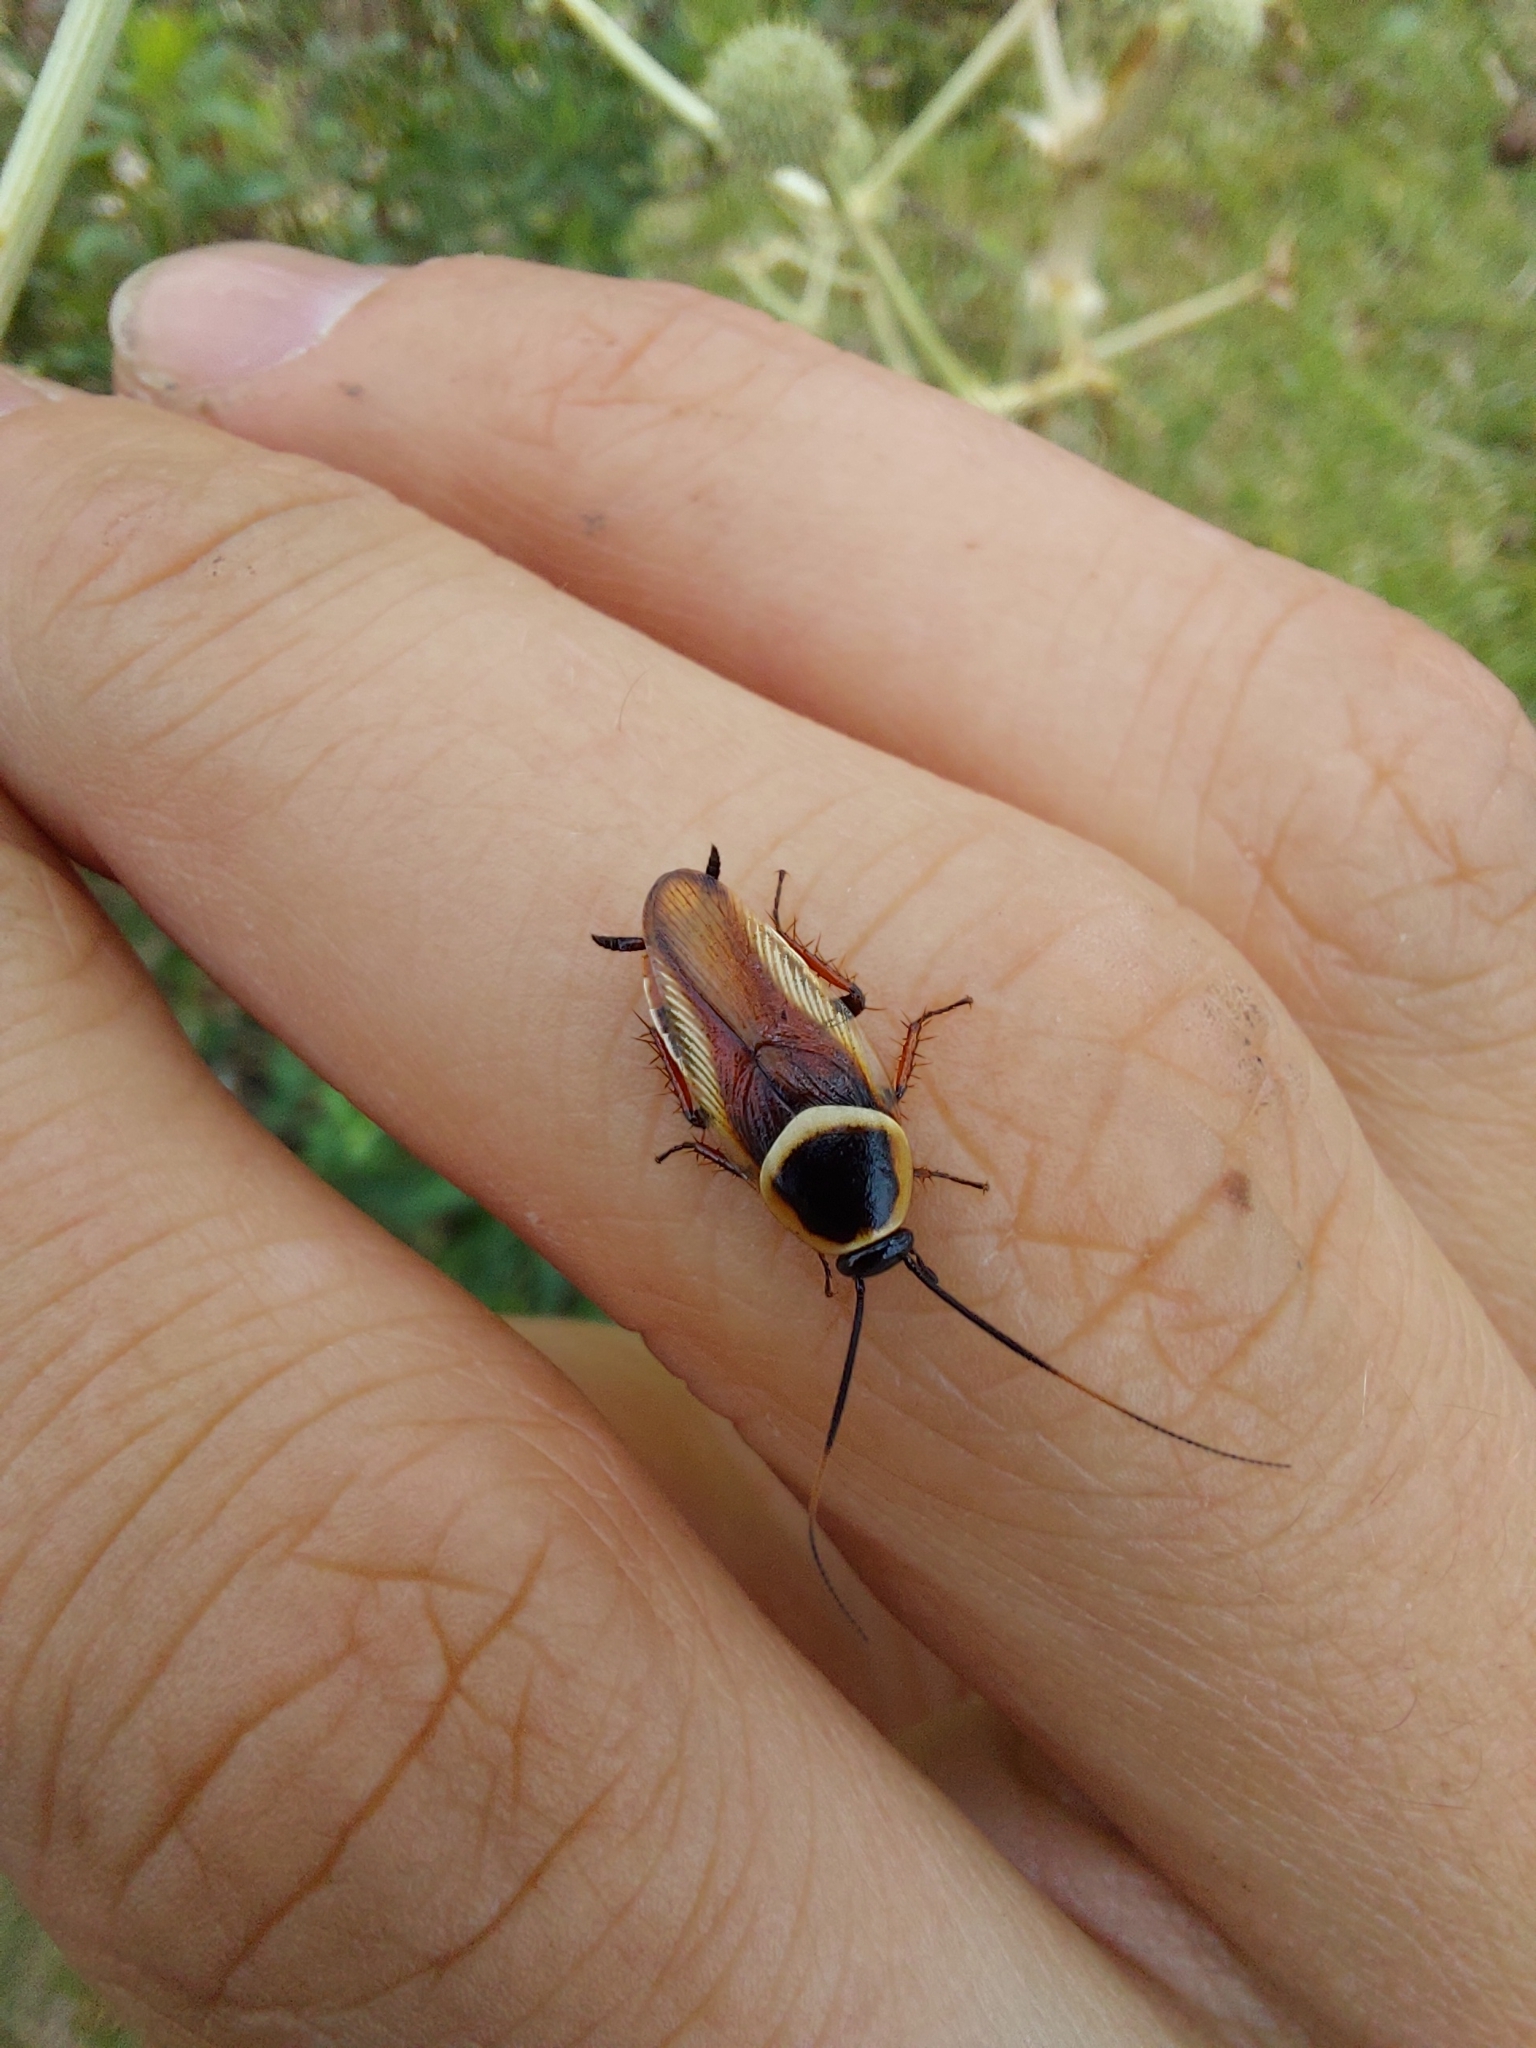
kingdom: Animalia
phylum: Arthropoda
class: Insecta
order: Blattodea
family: Ectobiidae
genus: Pseudomops
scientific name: Pseudomops neglectus
